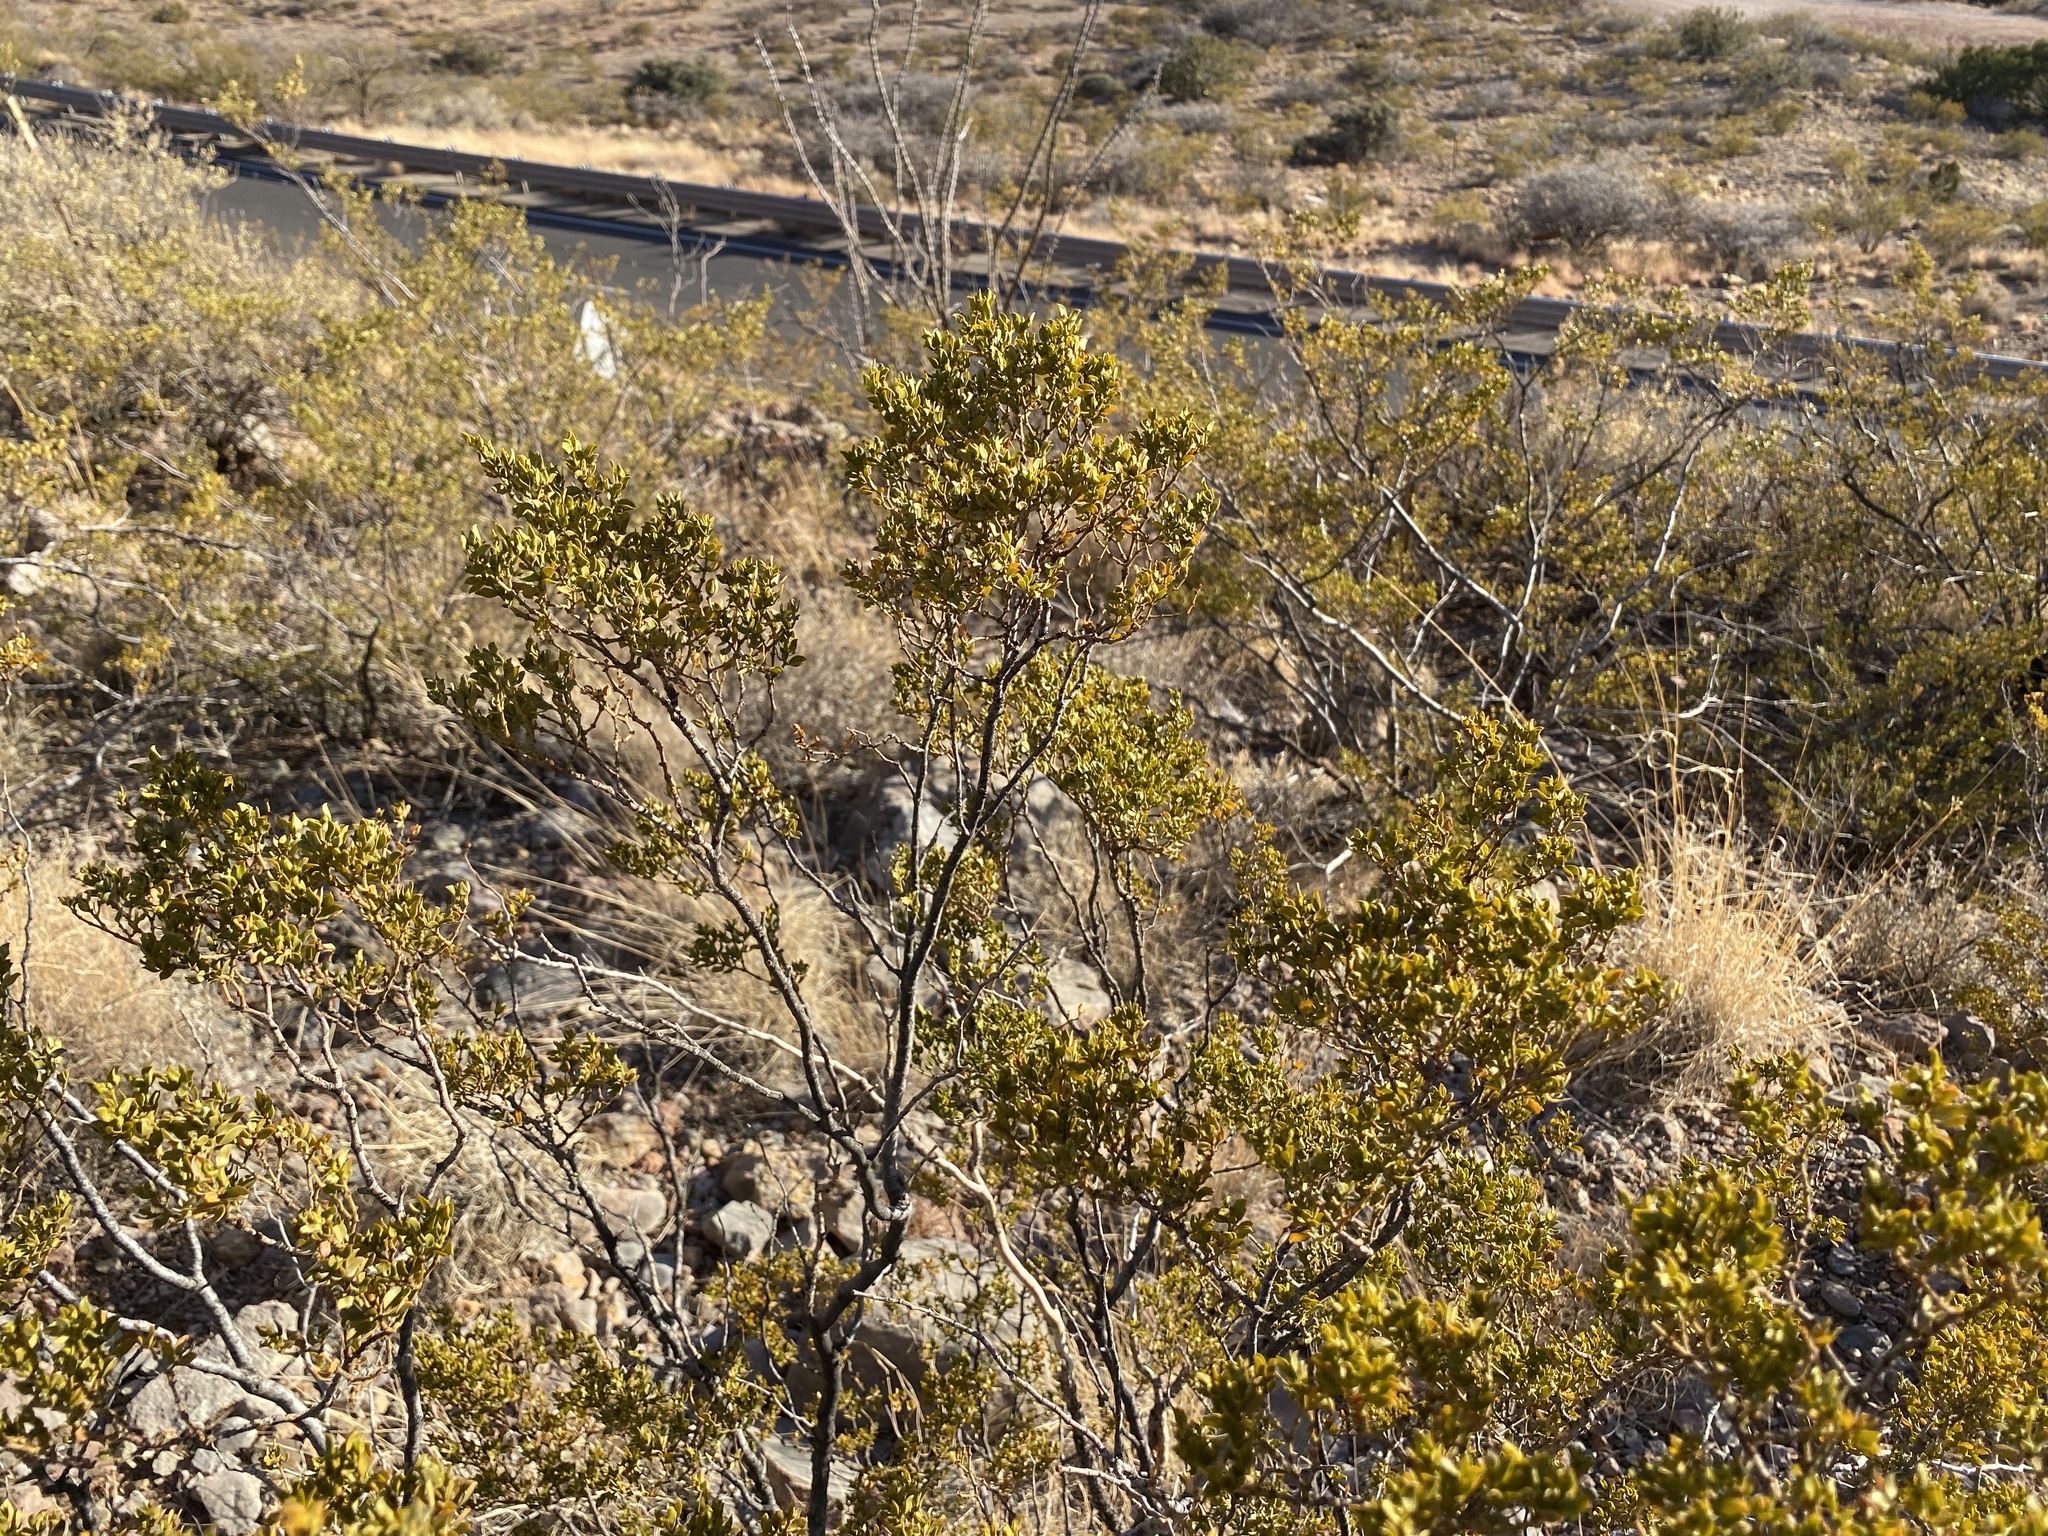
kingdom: Plantae
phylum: Tracheophyta
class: Magnoliopsida
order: Zygophyllales
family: Zygophyllaceae
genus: Larrea
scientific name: Larrea tridentata
